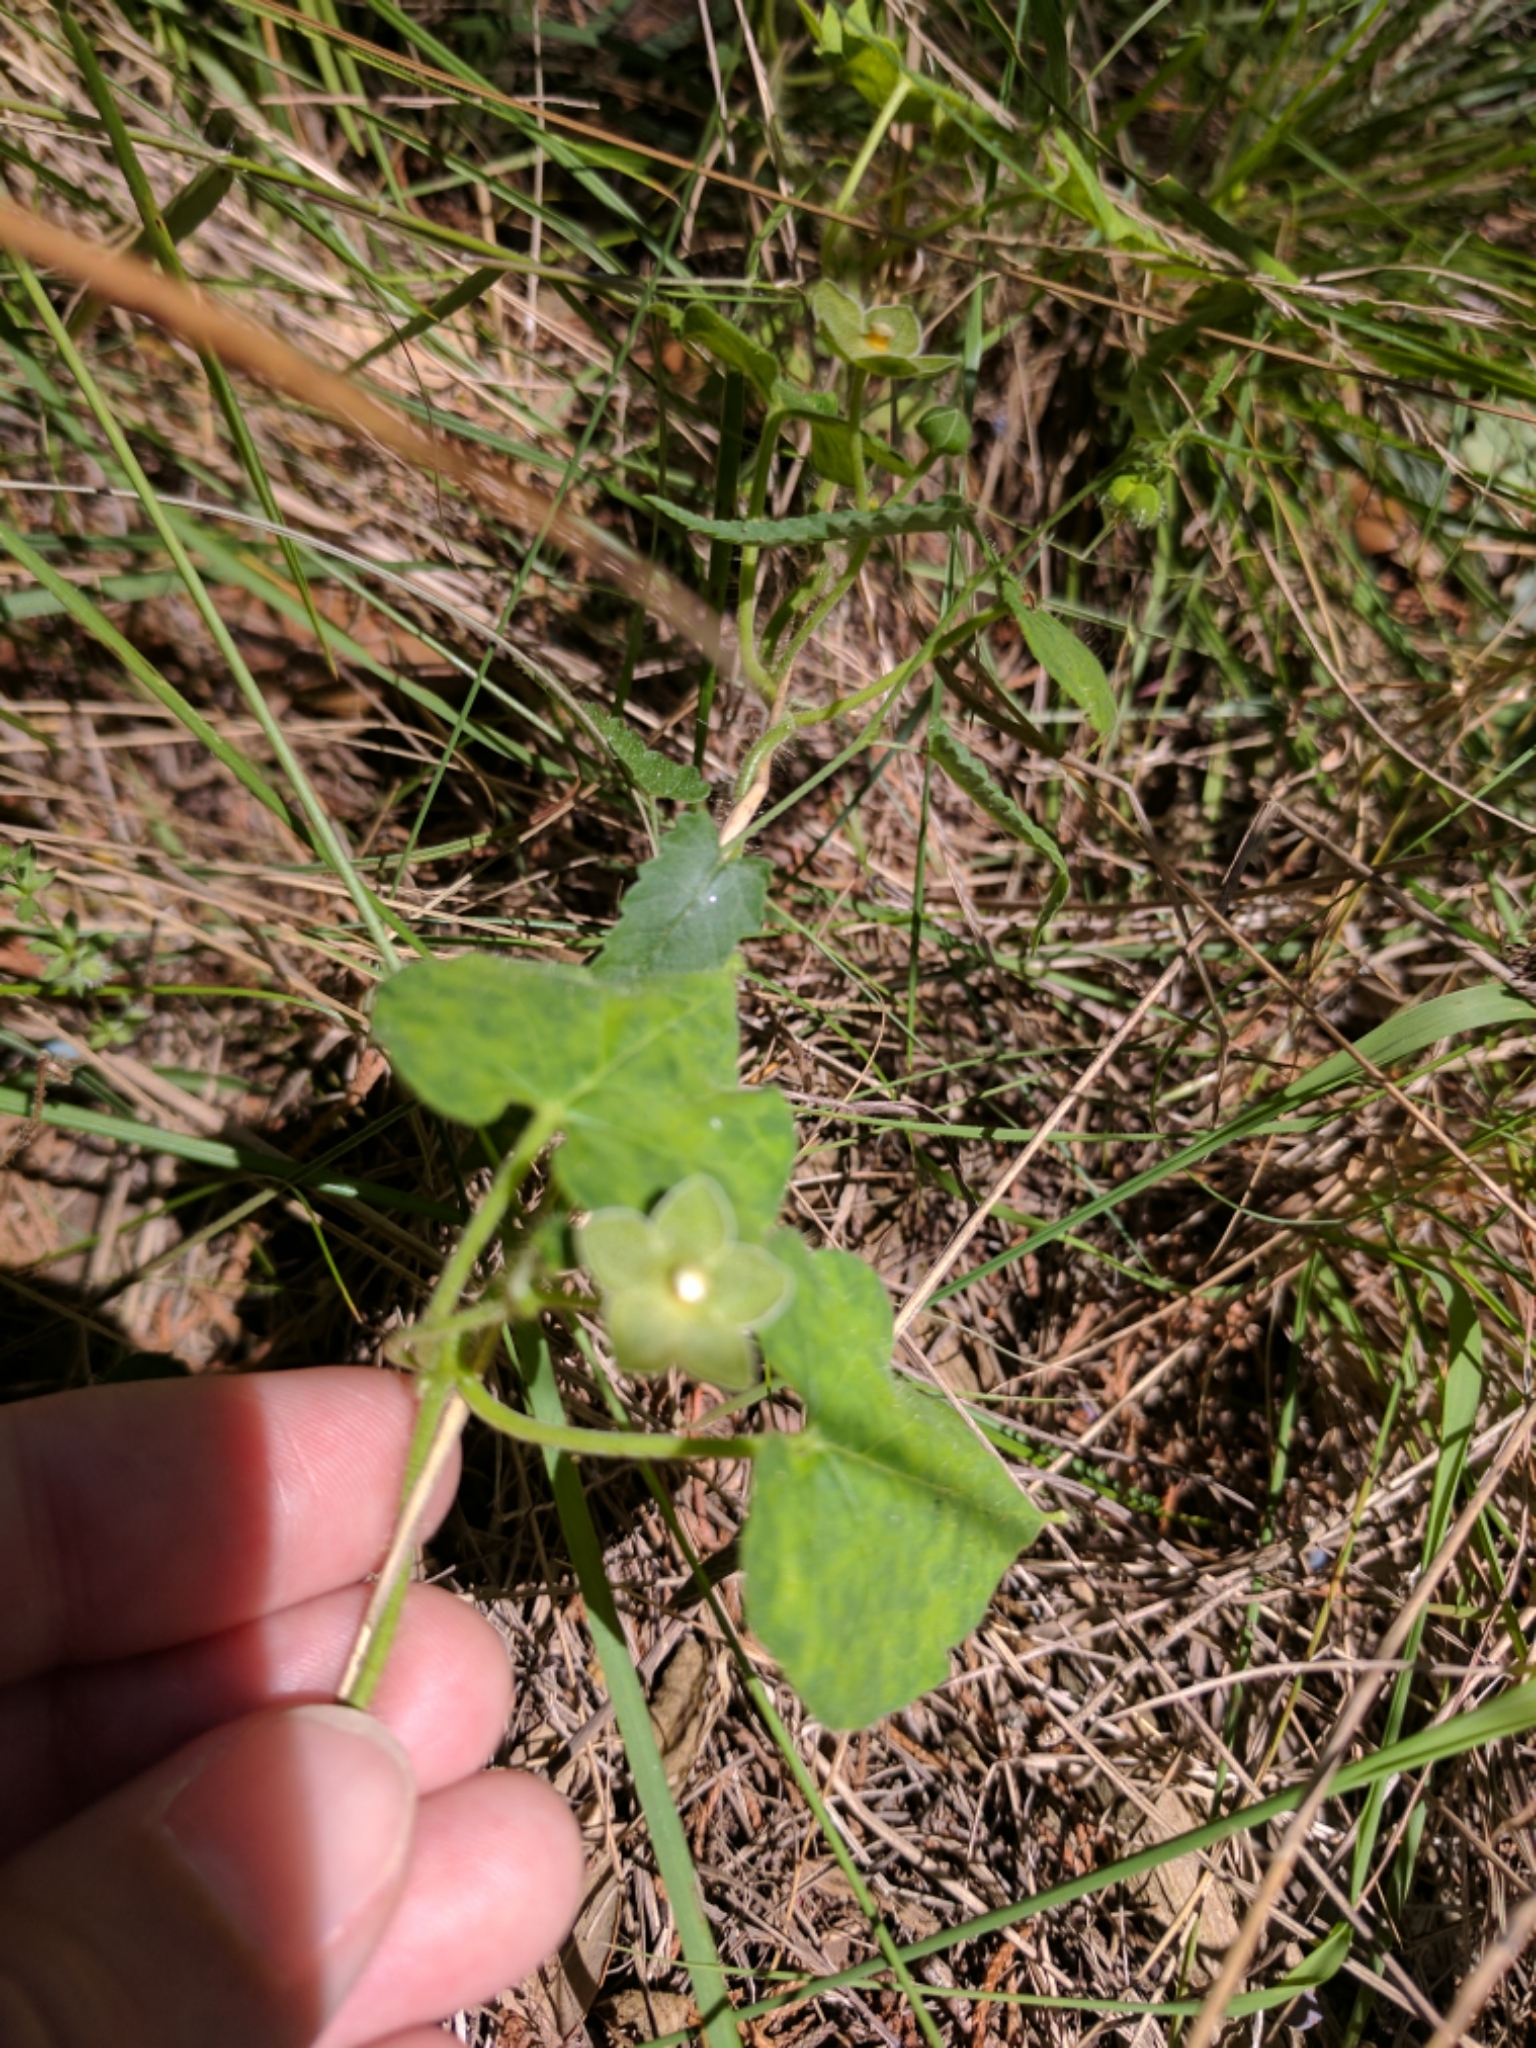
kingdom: Plantae
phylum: Tracheophyta
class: Magnoliopsida
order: Gentianales
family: Apocynaceae
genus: Dictyanthus
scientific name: Dictyanthus reticulatus
